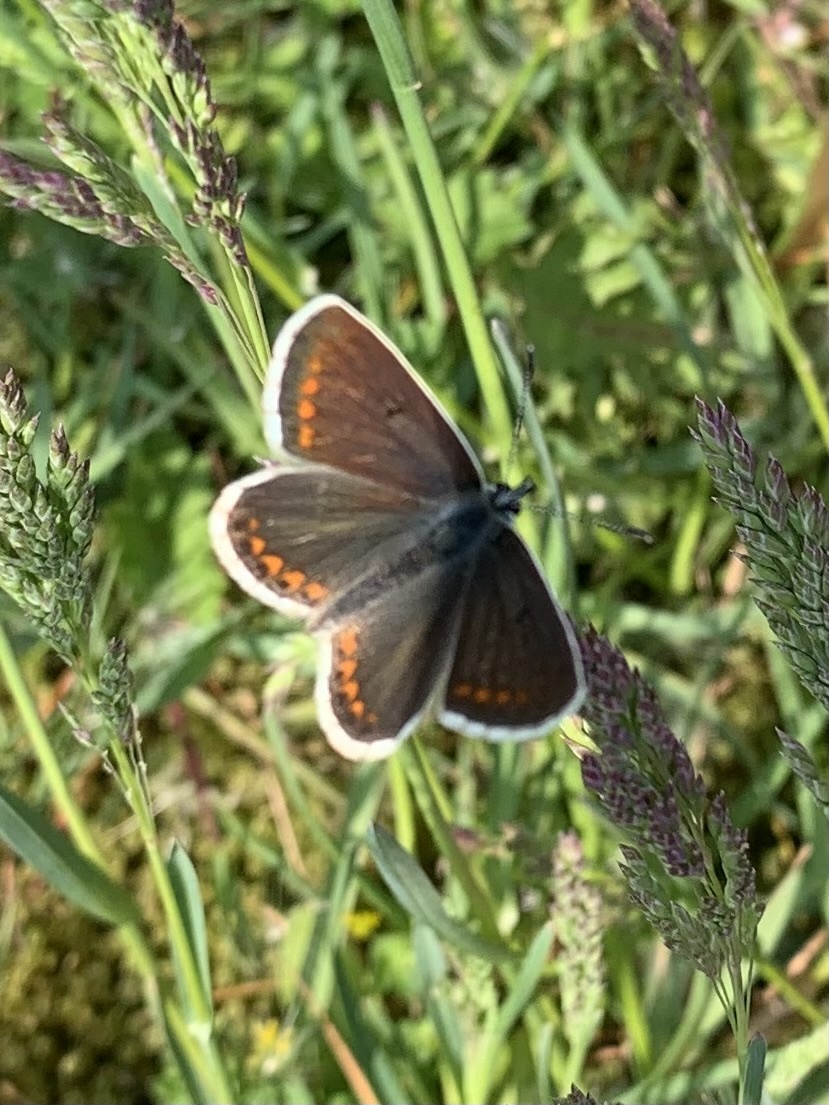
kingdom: Animalia
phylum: Arthropoda
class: Insecta
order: Lepidoptera
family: Lycaenidae
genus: Aricia
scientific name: Aricia agestis
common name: Brown argus
